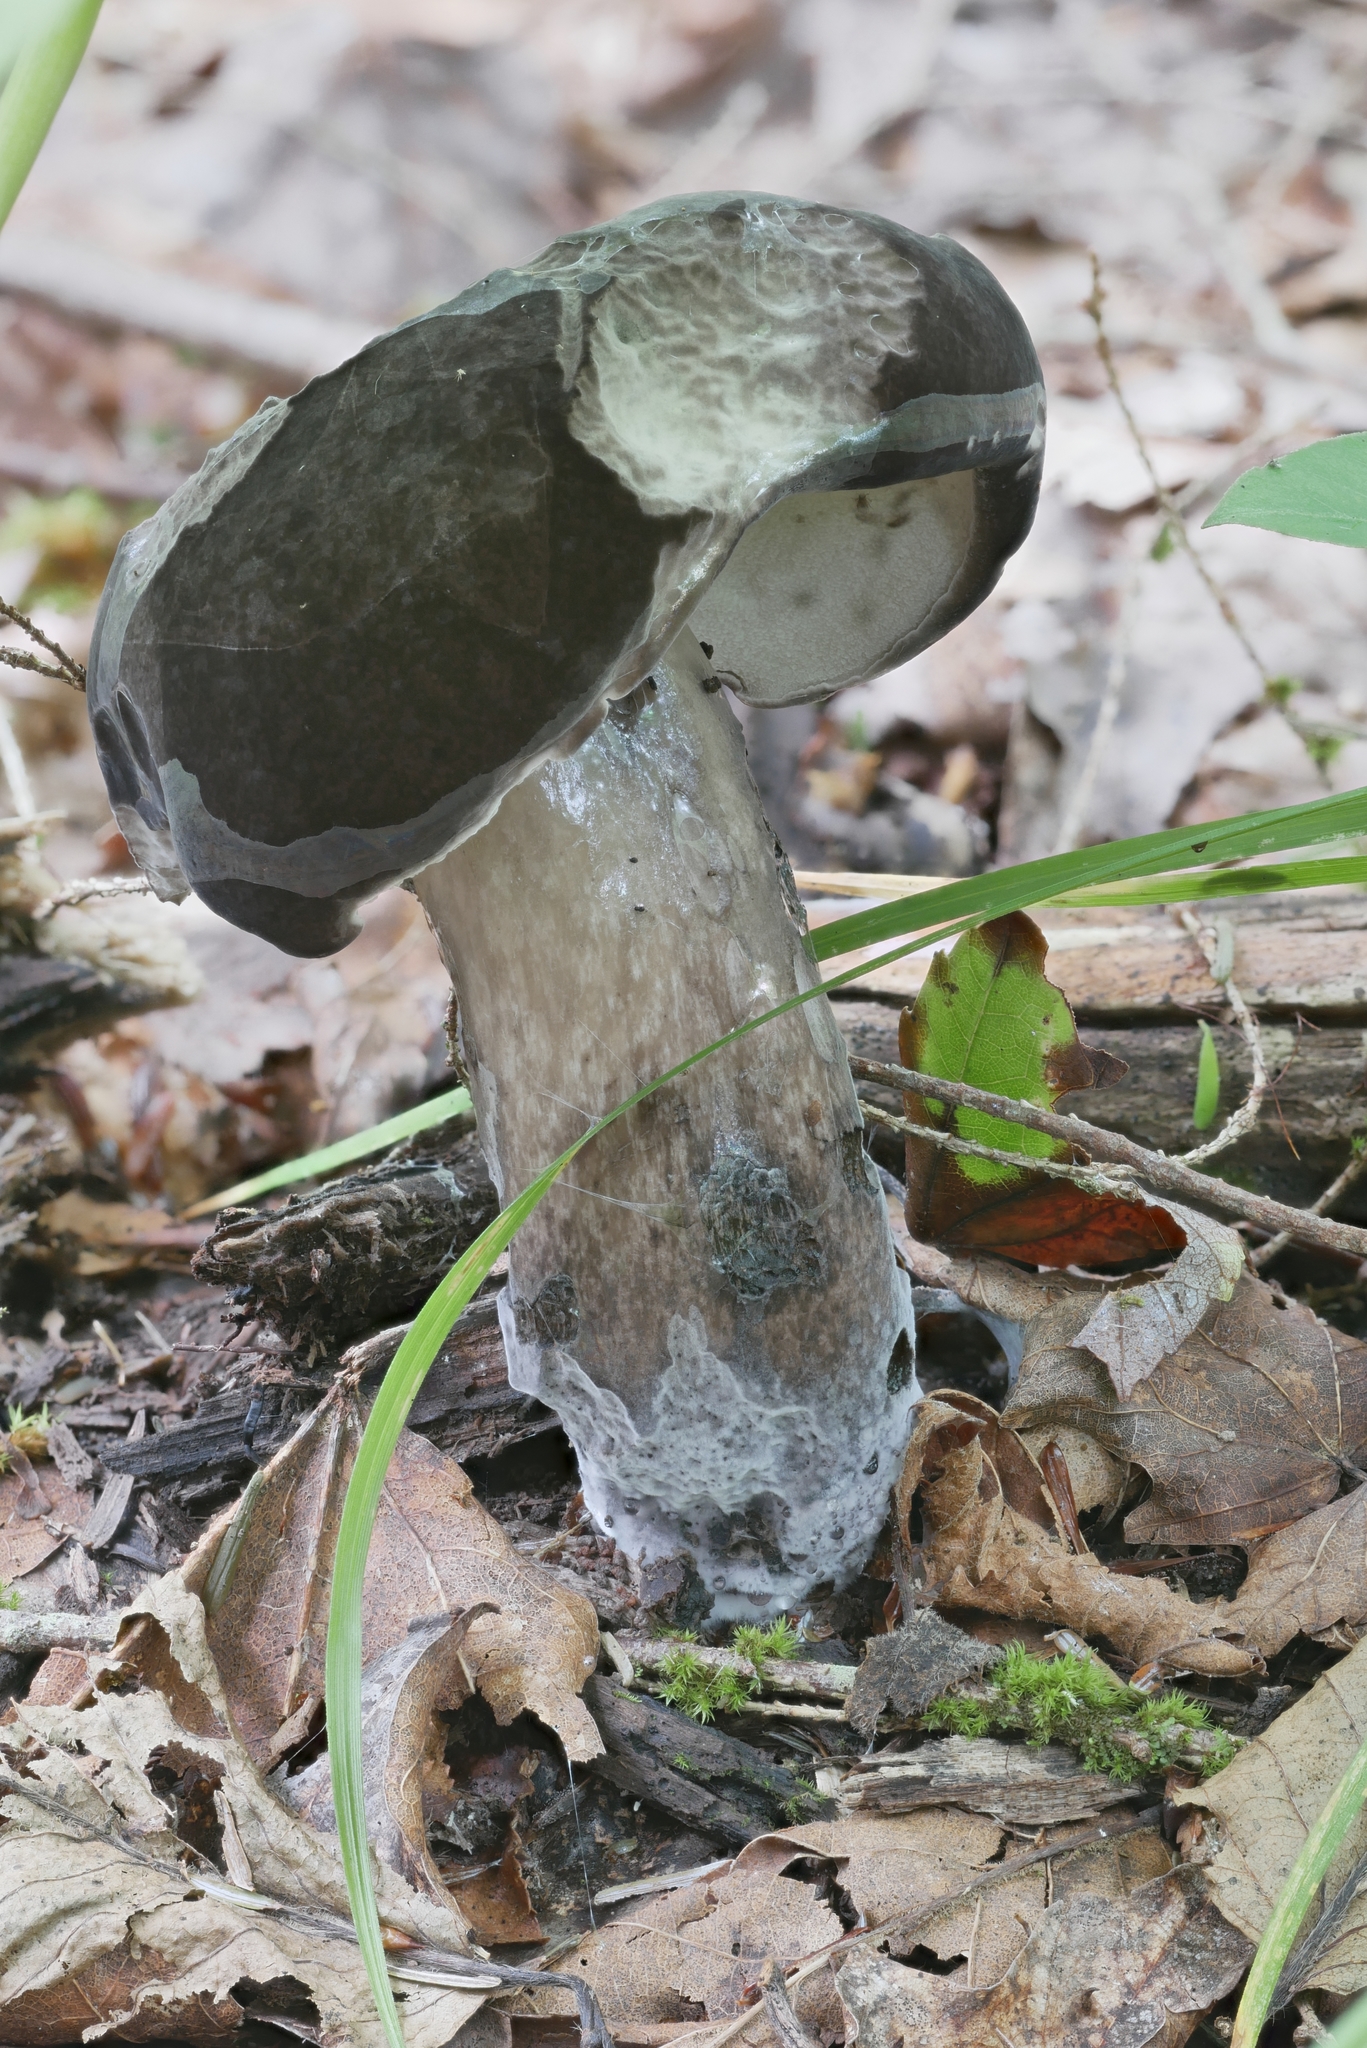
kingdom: Fungi
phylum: Basidiomycota
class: Agaricomycetes
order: Boletales
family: Boletaceae
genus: Tylopilus
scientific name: Tylopilus atratus
